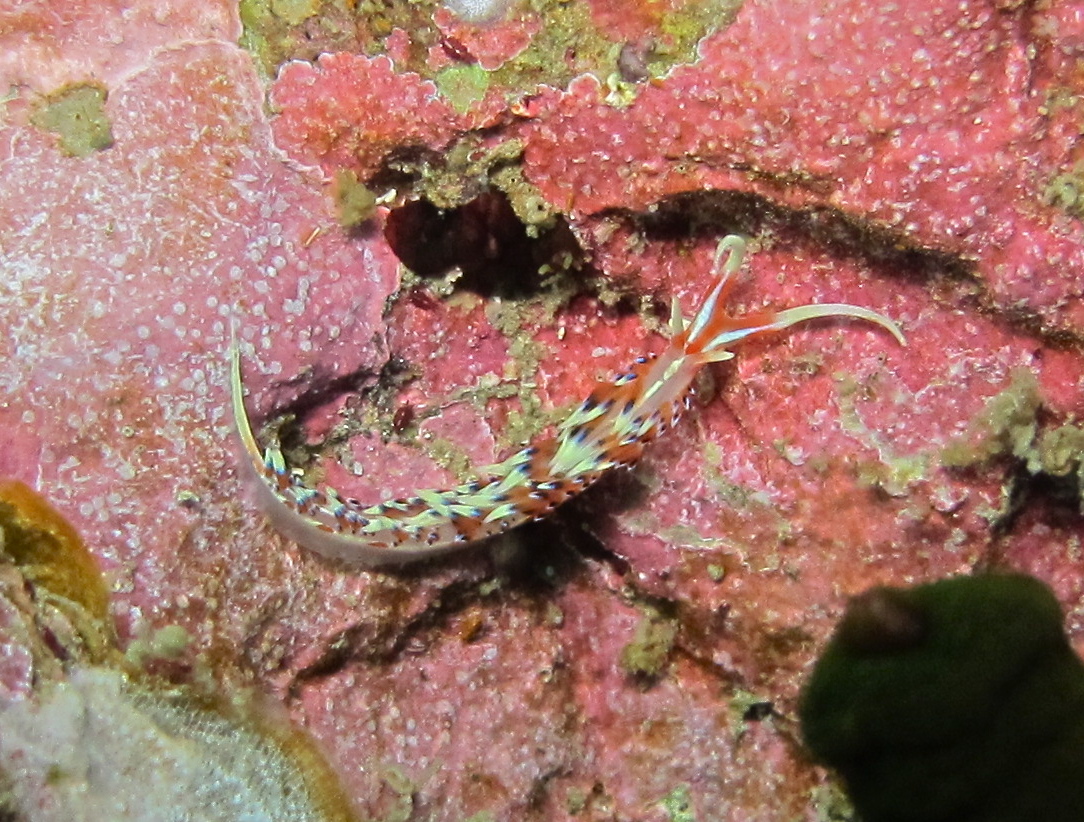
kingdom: Animalia
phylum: Mollusca
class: Gastropoda
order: Nudibranchia
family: Facelinidae
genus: Caloria
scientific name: Caloria indica
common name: Sea slug
